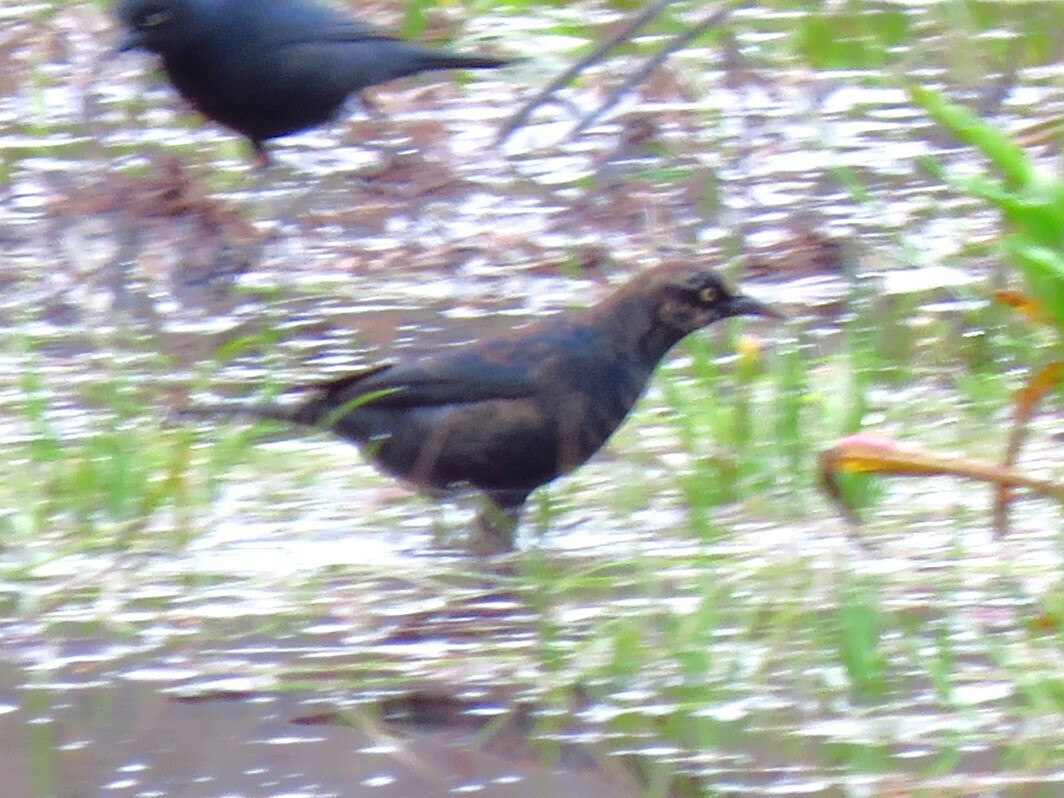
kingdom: Animalia
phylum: Chordata
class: Aves
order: Passeriformes
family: Icteridae
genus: Euphagus
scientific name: Euphagus carolinus
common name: Rusty blackbird
